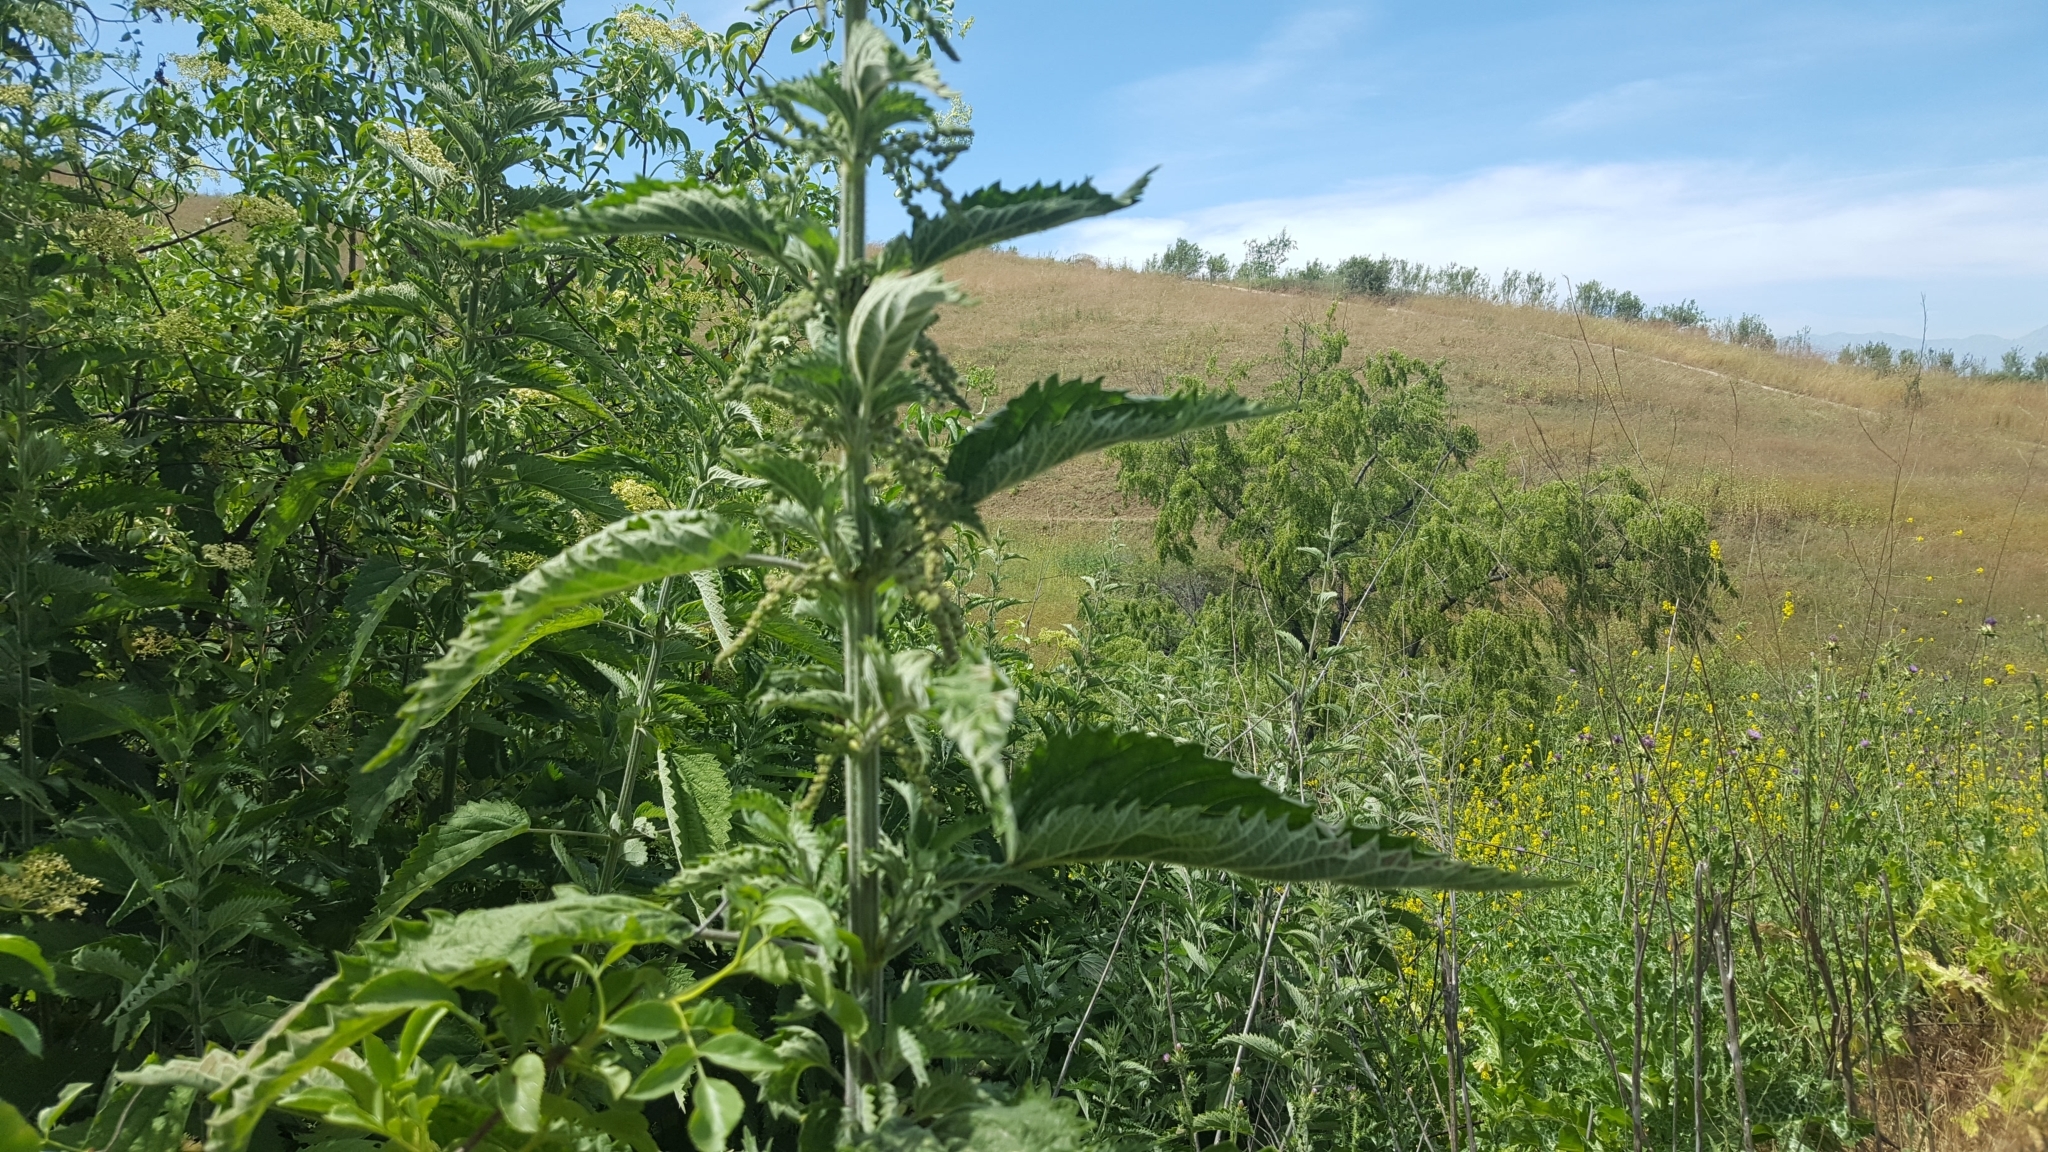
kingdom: Plantae
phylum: Tracheophyta
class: Magnoliopsida
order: Rosales
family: Urticaceae
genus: Urtica
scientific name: Urtica gracilis
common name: Slender stinging nettle
